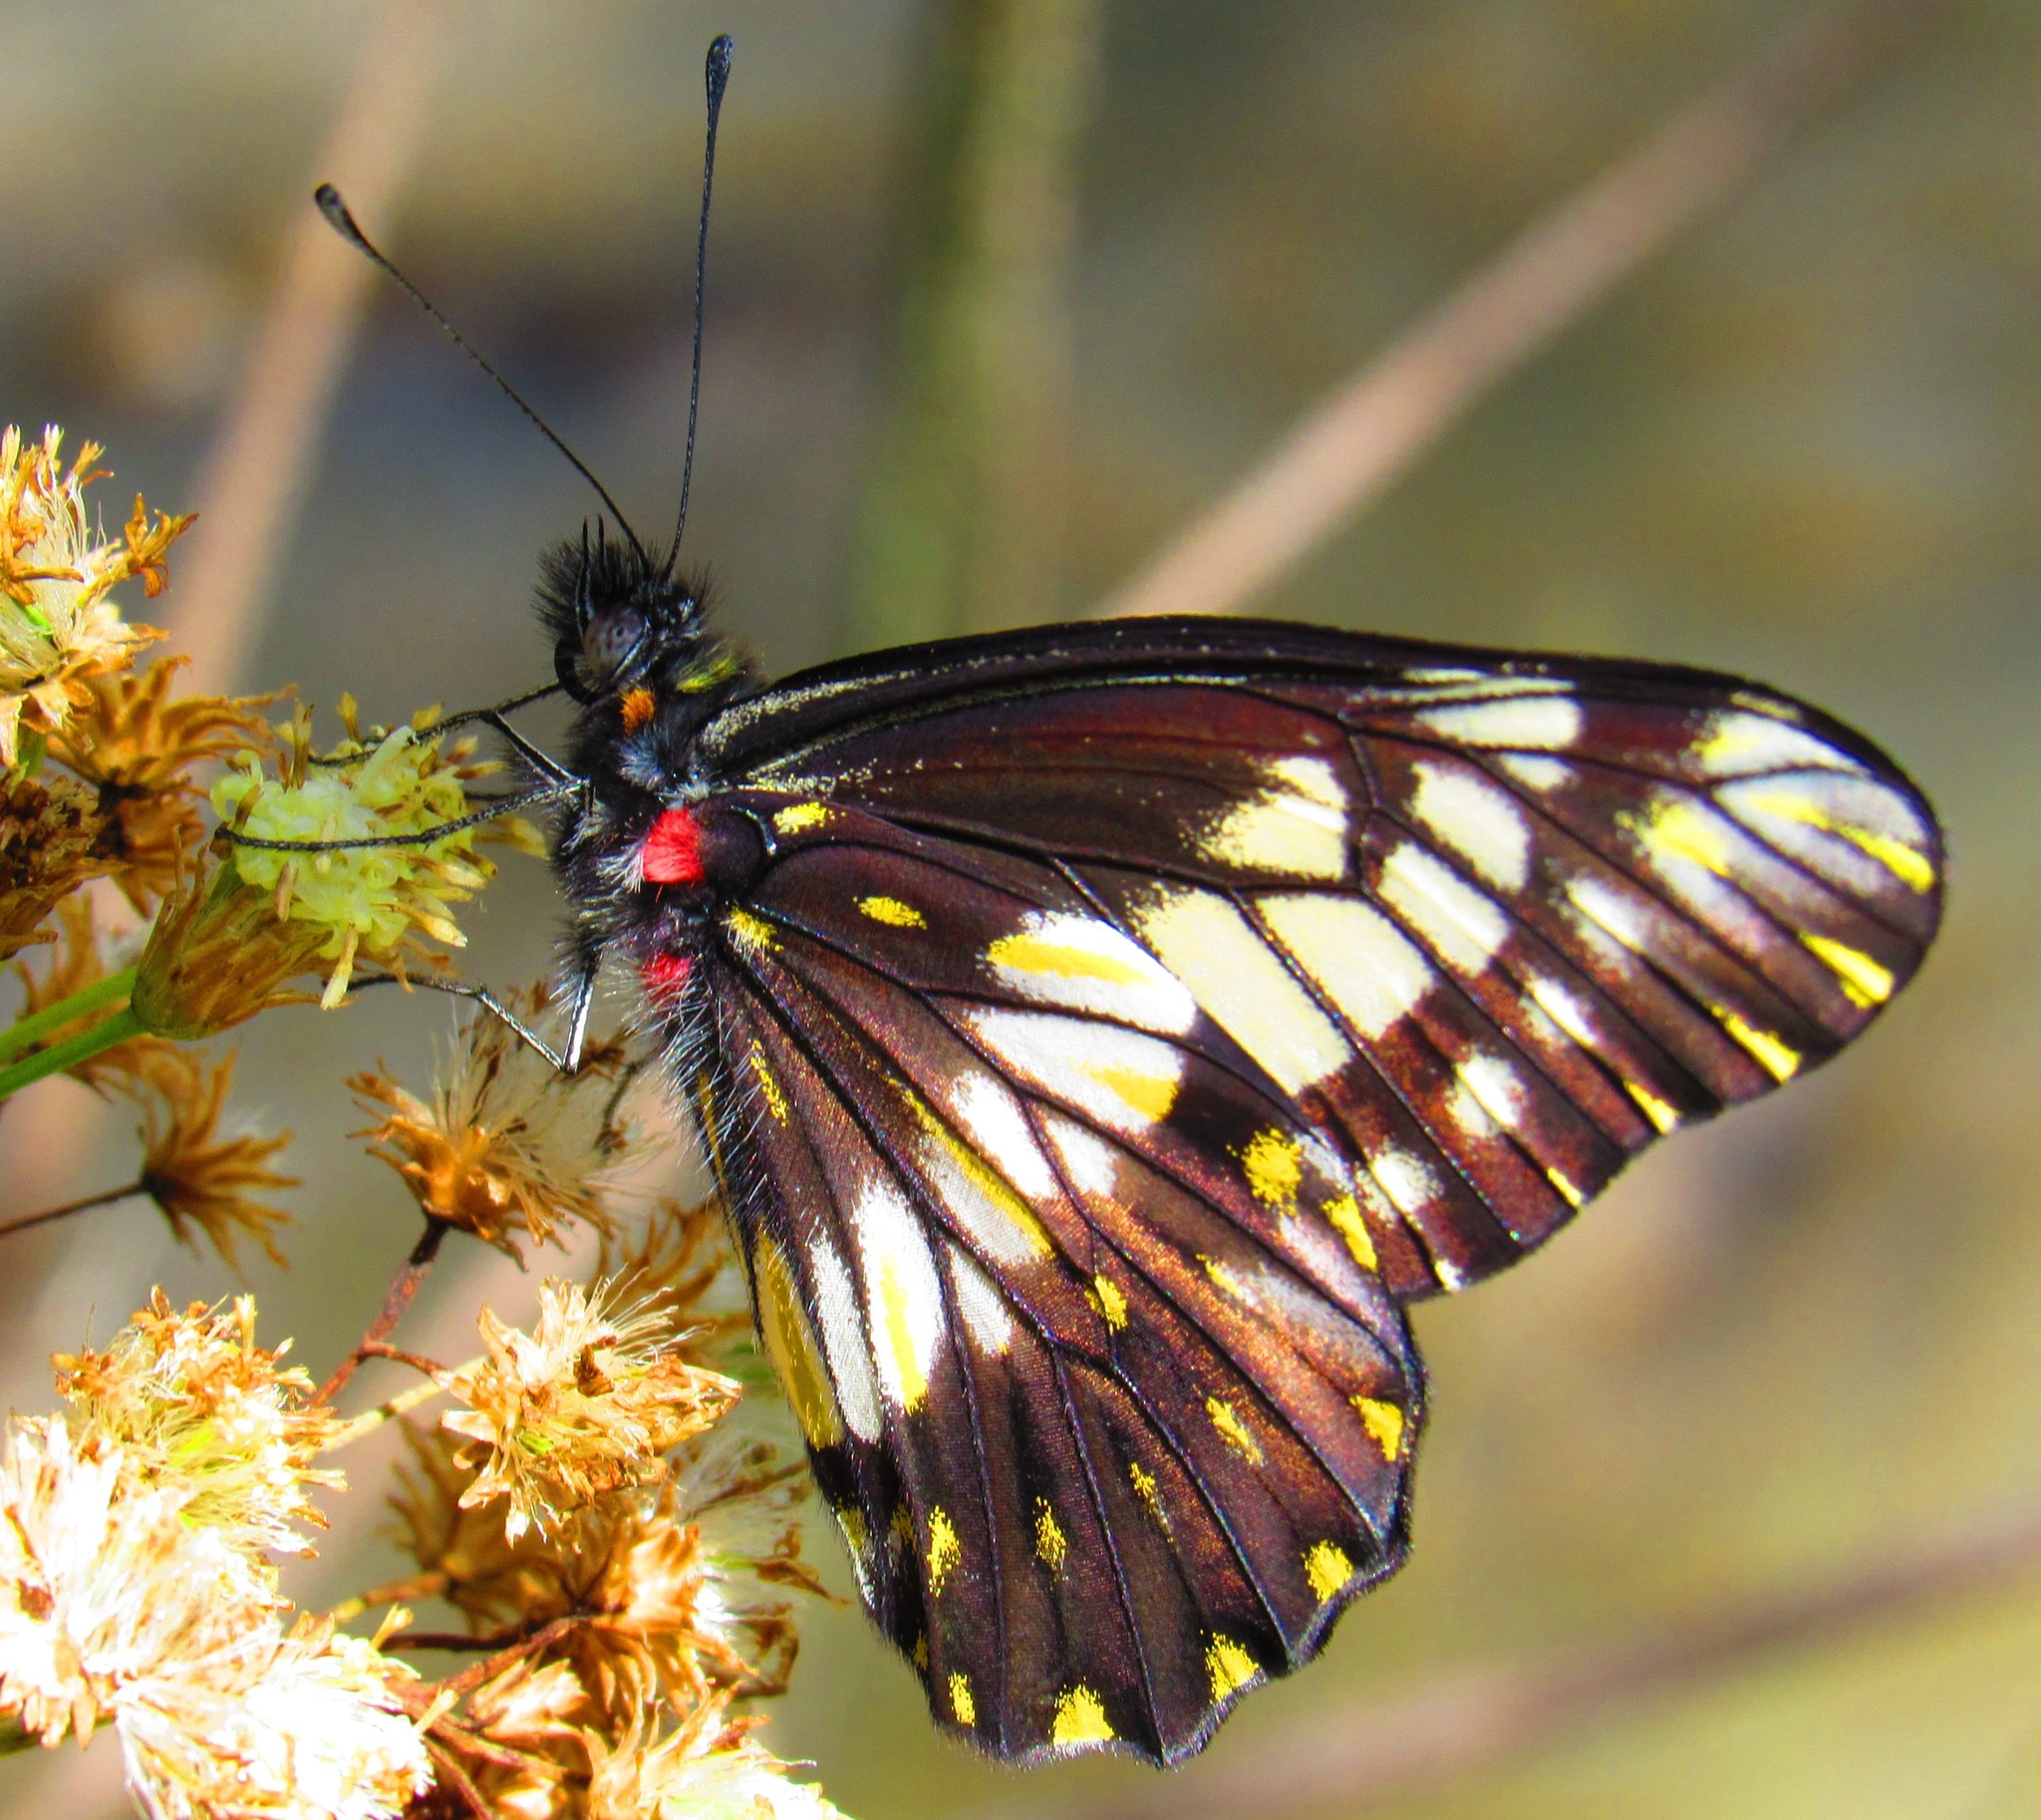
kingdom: Animalia
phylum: Arthropoda
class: Insecta
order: Lepidoptera
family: Pieridae
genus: Archonias
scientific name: Archonias nimbice
